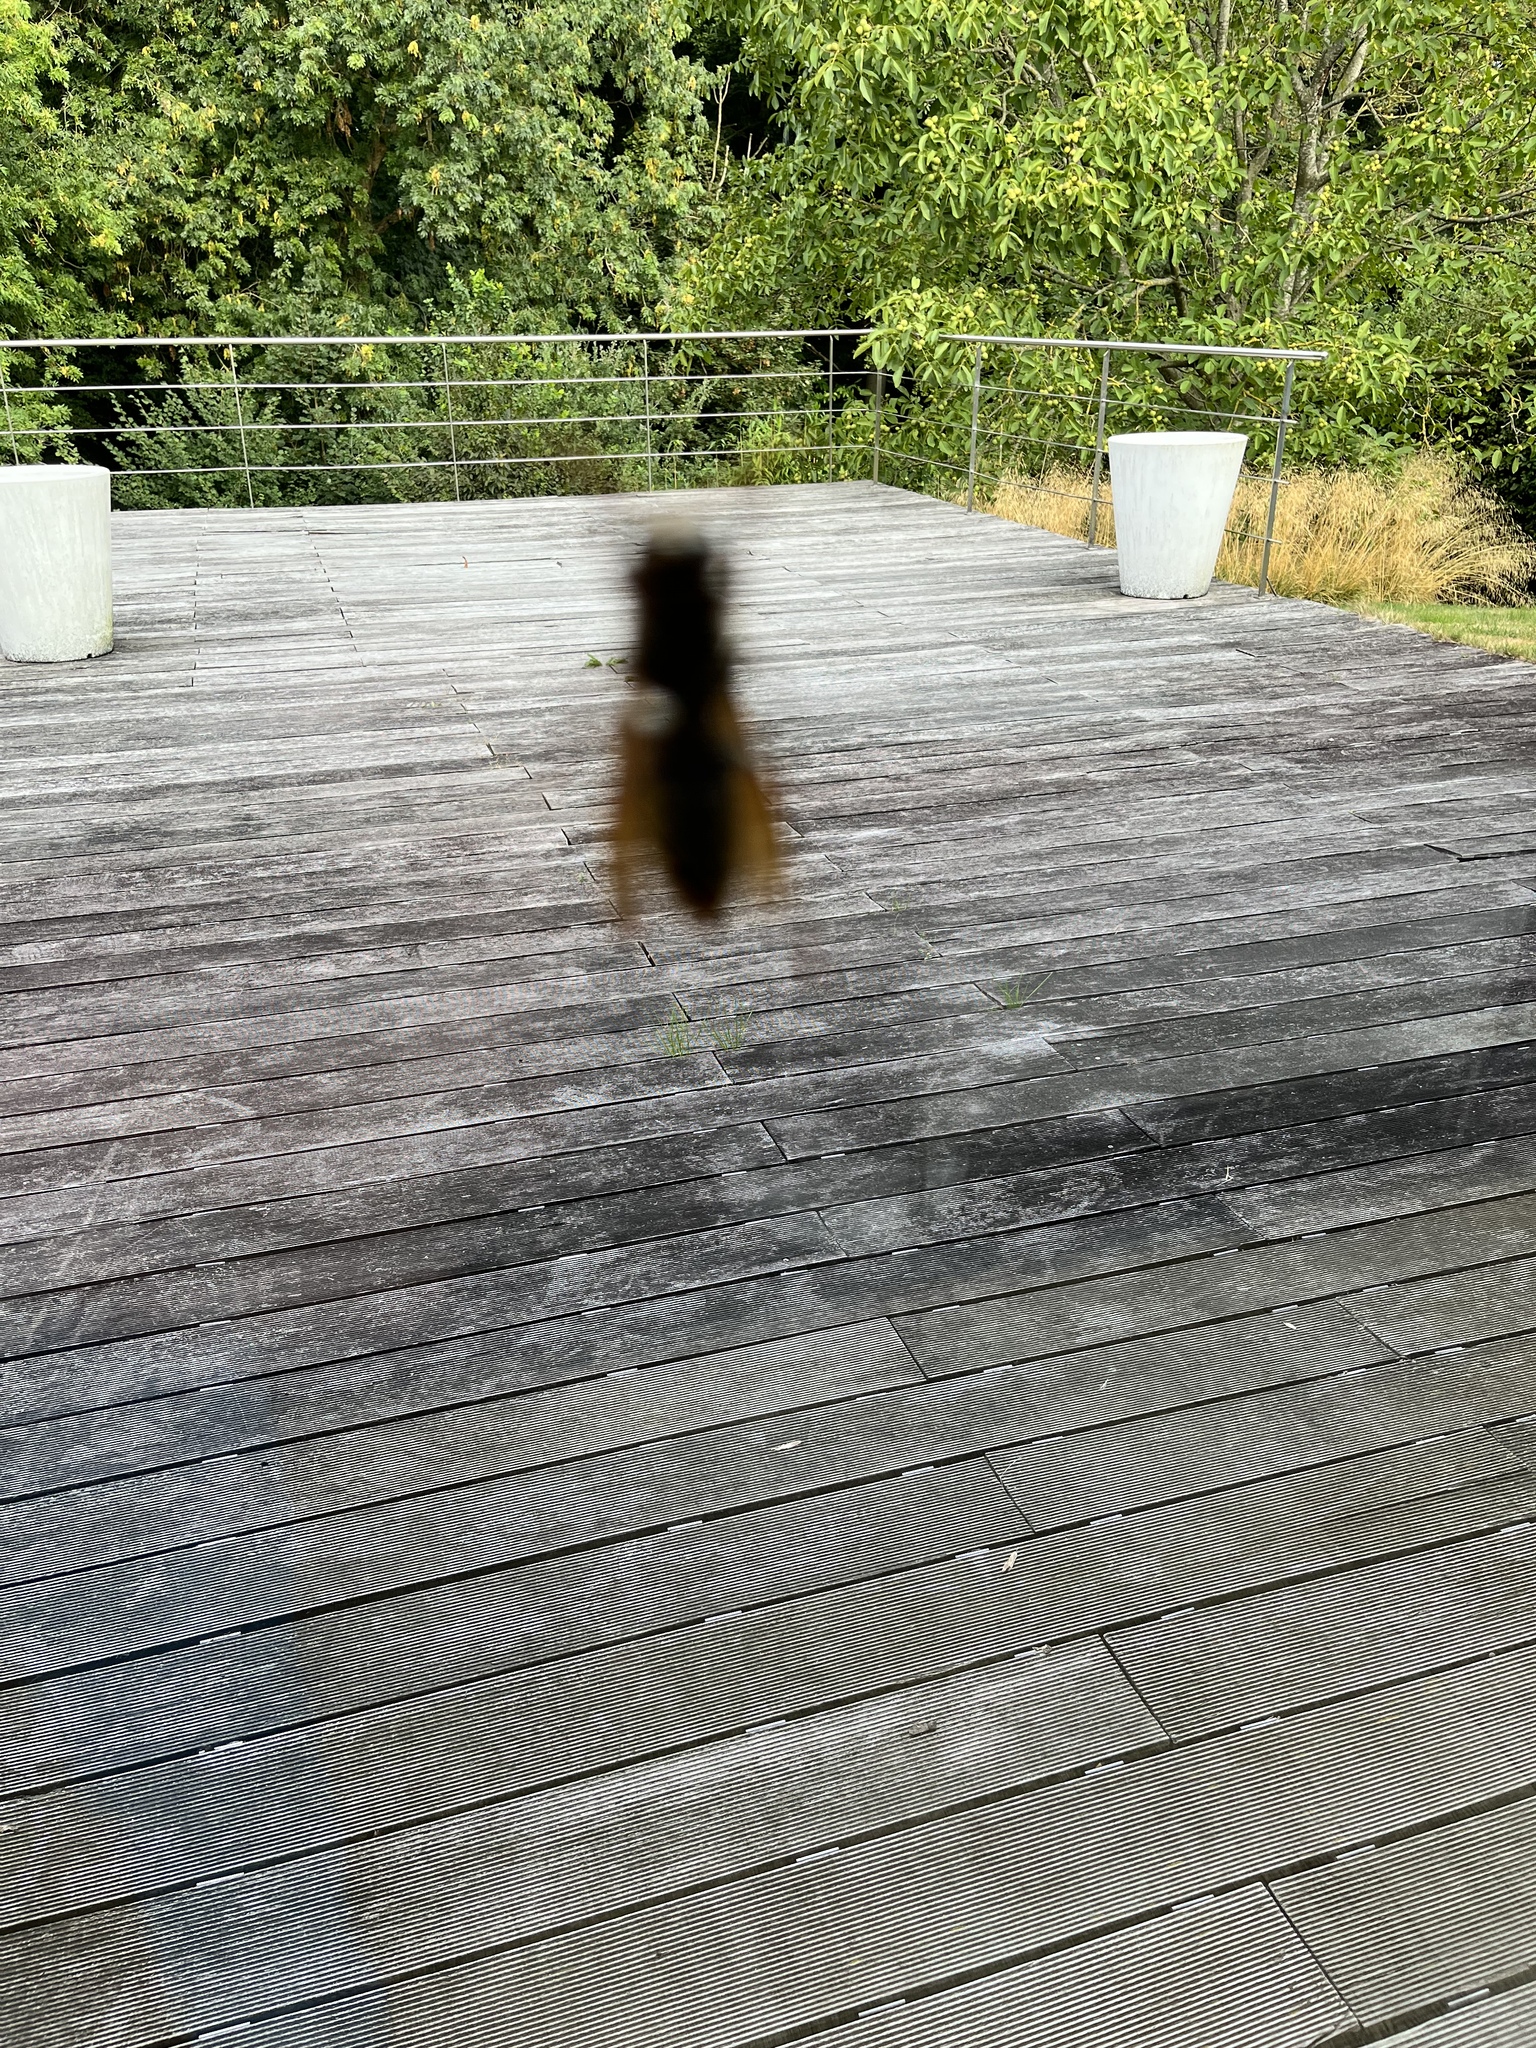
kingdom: Animalia
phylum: Arthropoda
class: Insecta
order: Hymenoptera
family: Vespidae
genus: Vespa
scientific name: Vespa crabro
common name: Hornet
